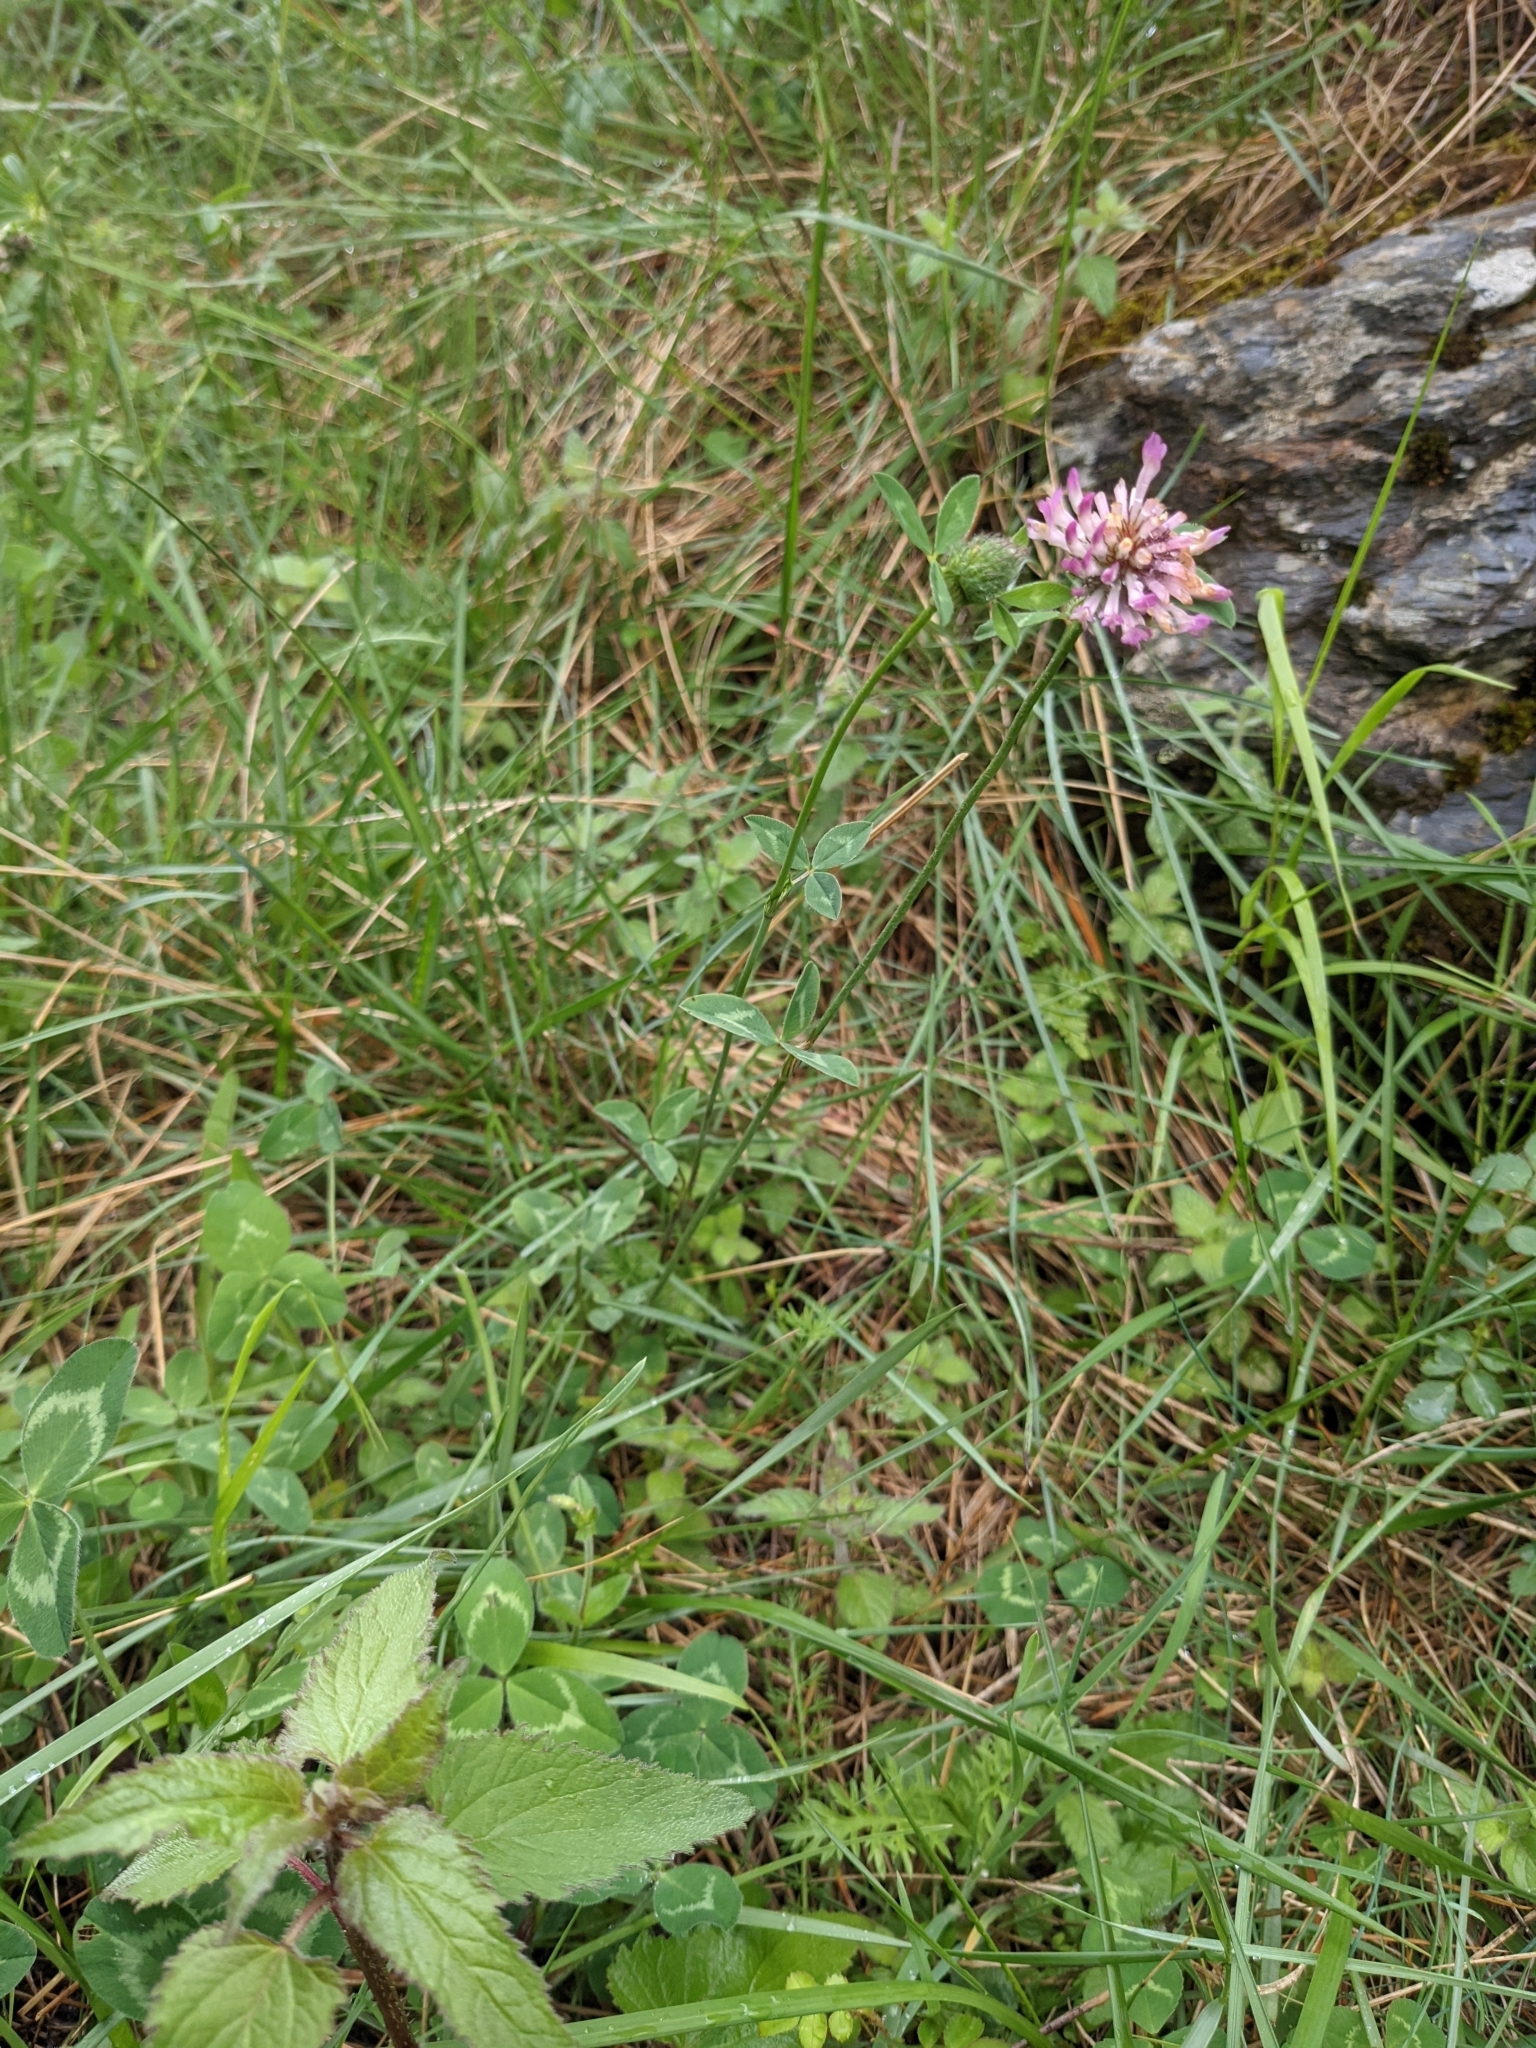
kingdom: Plantae
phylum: Tracheophyta
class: Magnoliopsida
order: Fabales
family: Fabaceae
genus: Trifolium
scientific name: Trifolium pratense
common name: Red clover
